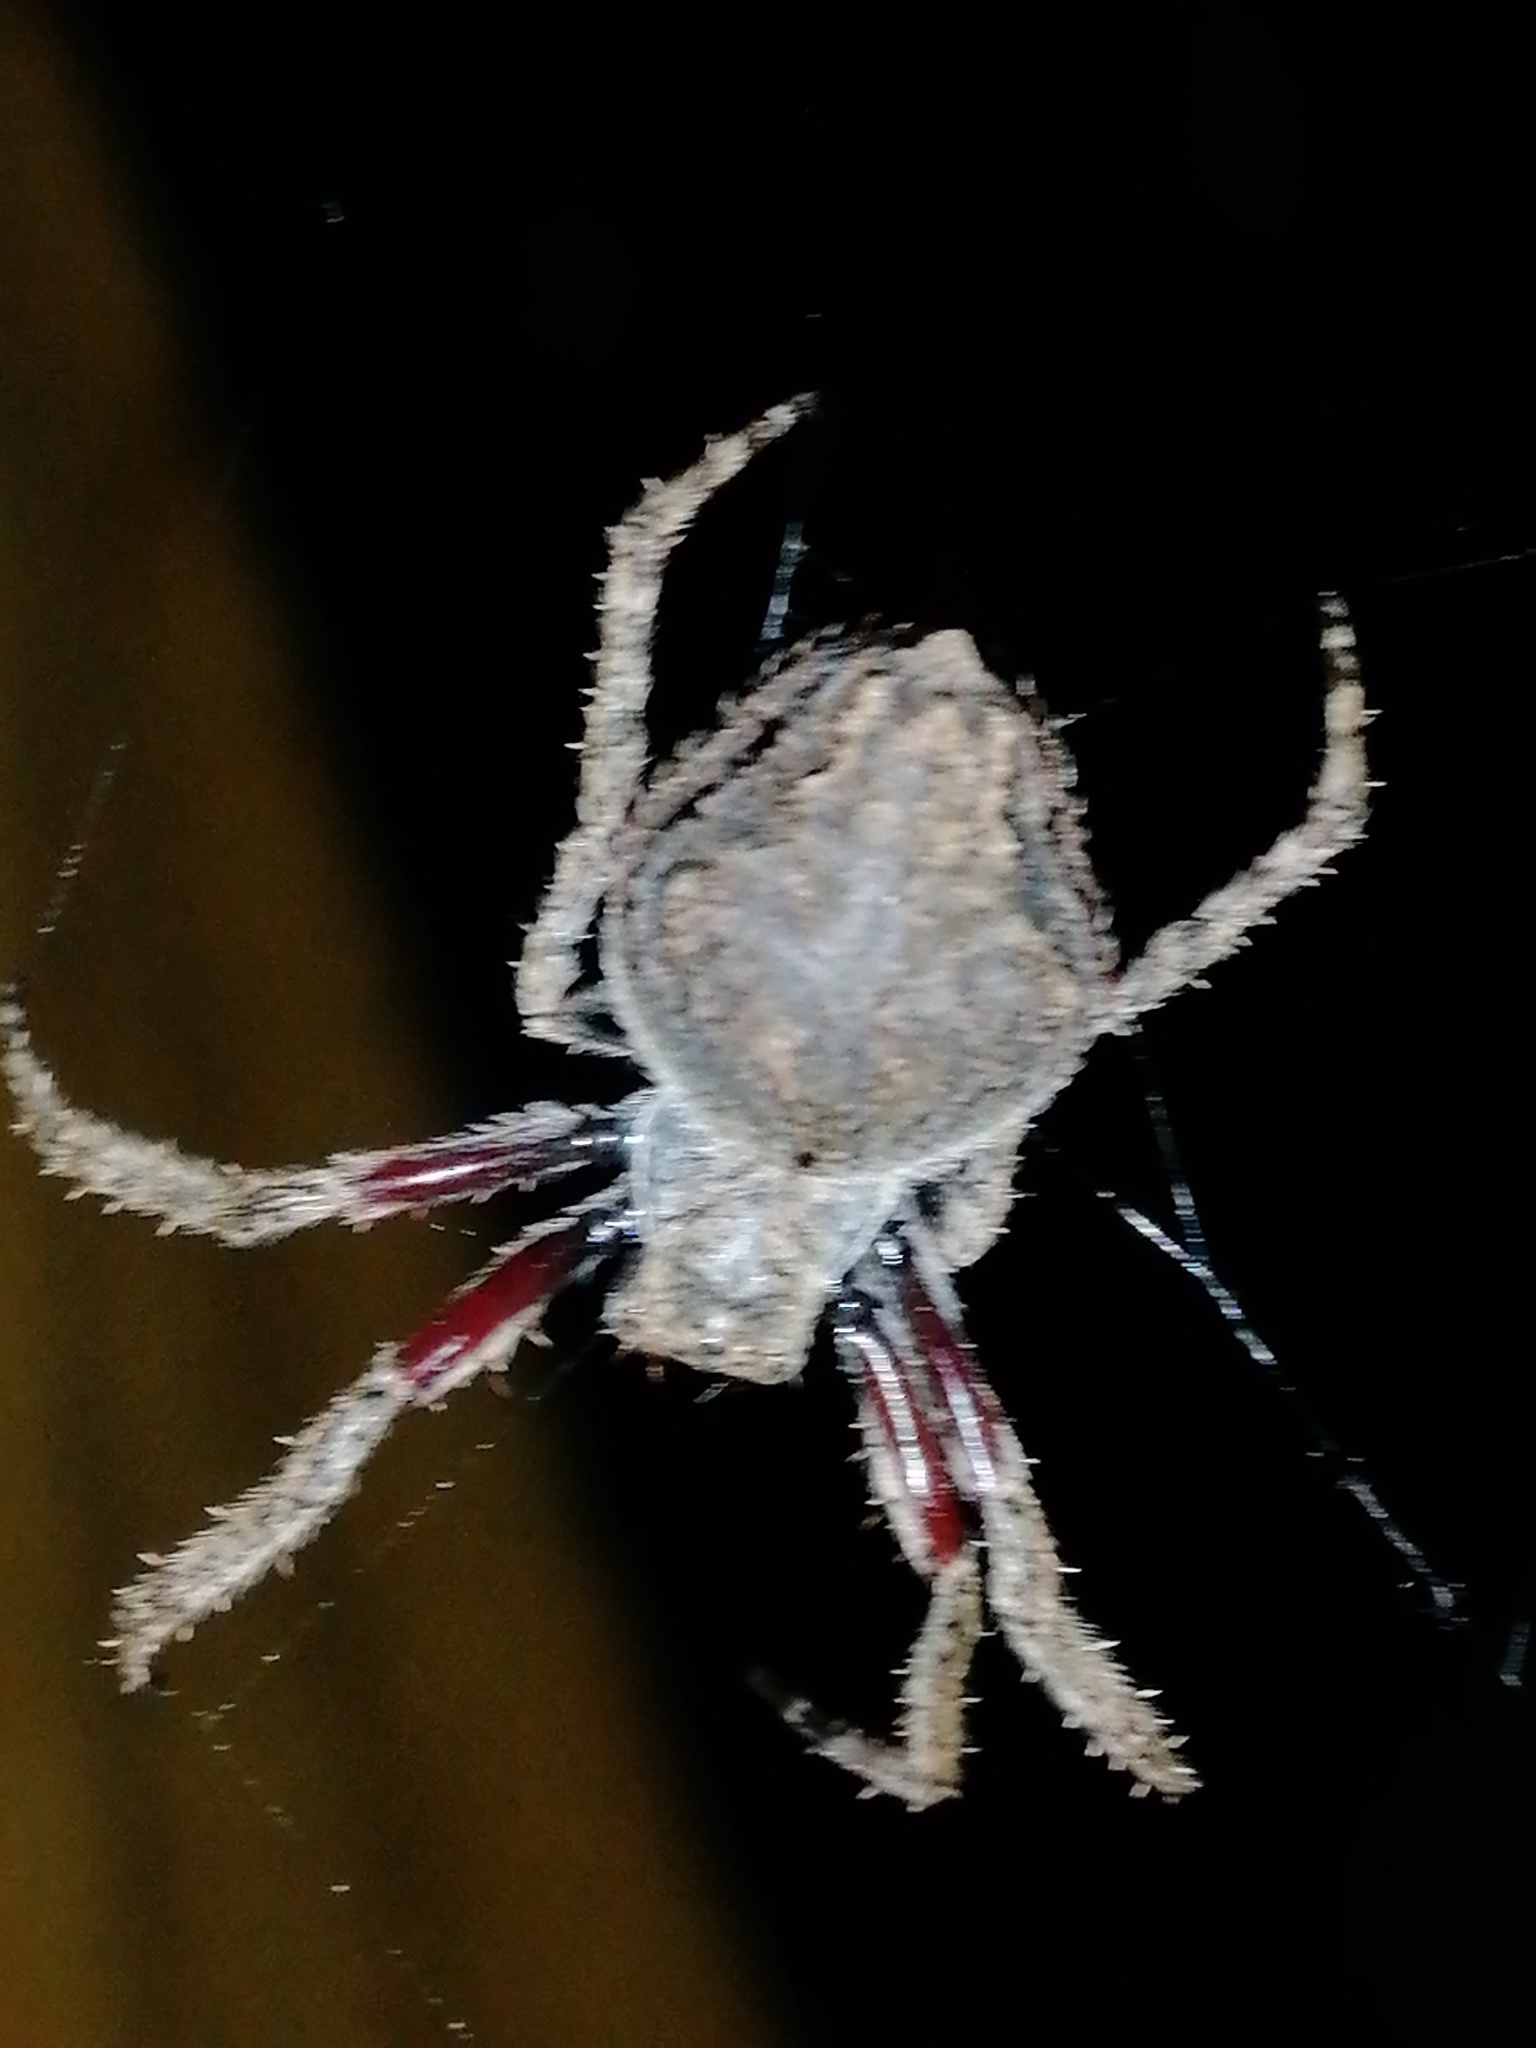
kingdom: Animalia
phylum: Arthropoda
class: Arachnida
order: Araneae
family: Araneidae
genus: Eriophora
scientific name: Eriophora pustulosa
